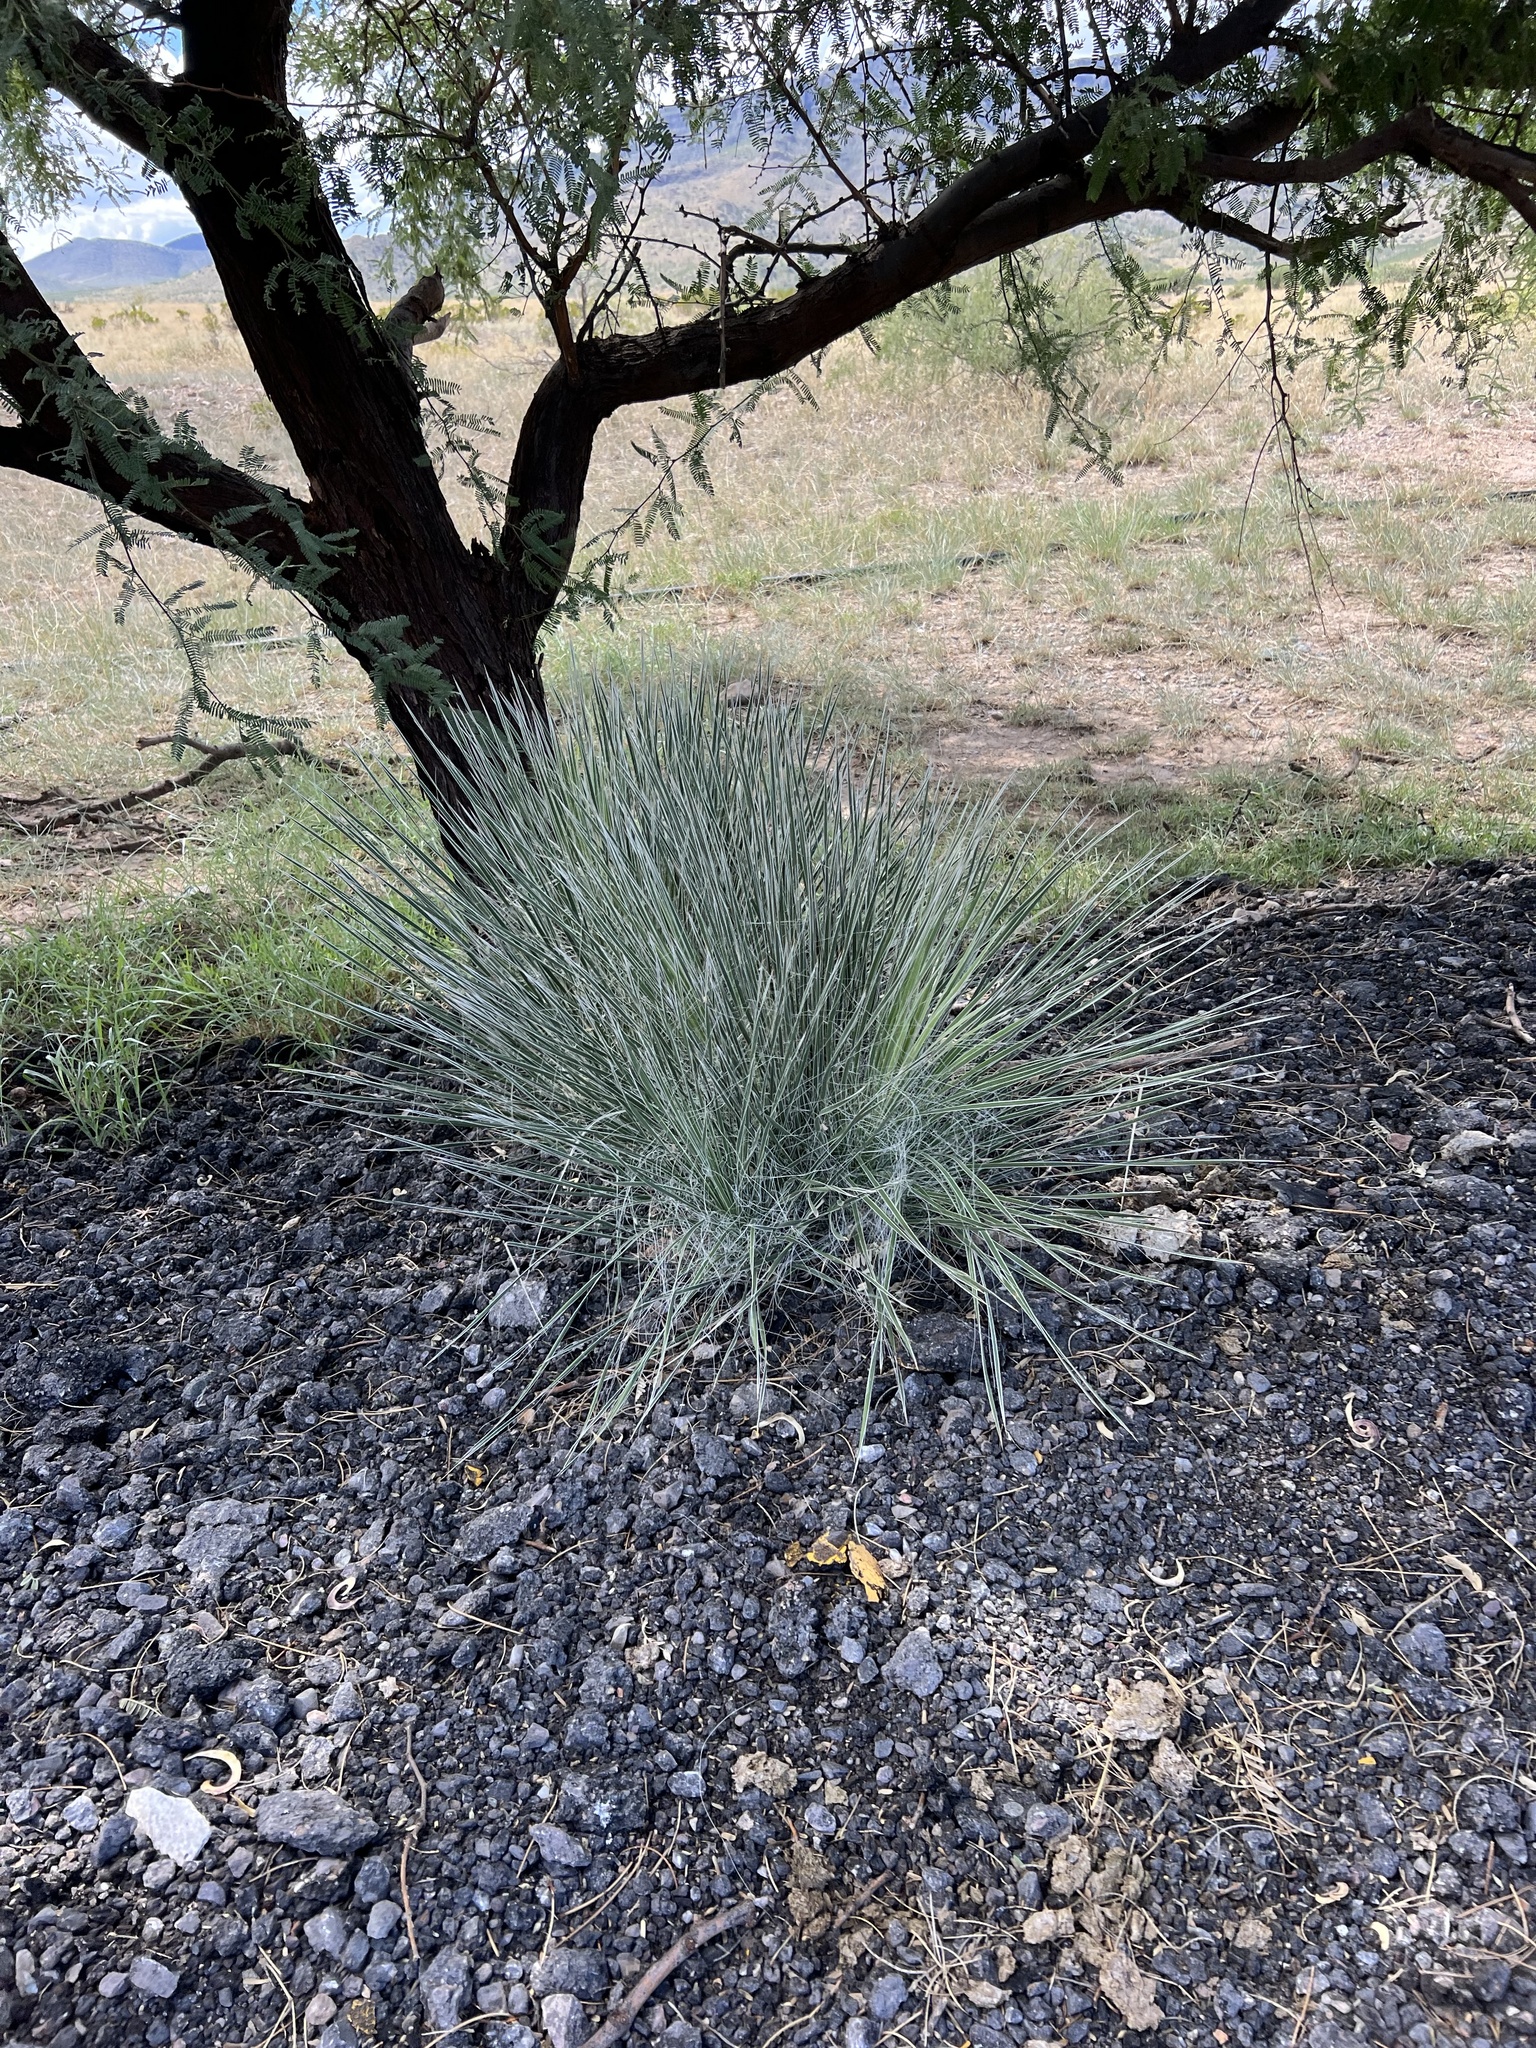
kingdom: Plantae
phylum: Tracheophyta
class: Liliopsida
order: Asparagales
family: Asparagaceae
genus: Yucca
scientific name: Yucca elata
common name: Palmella
